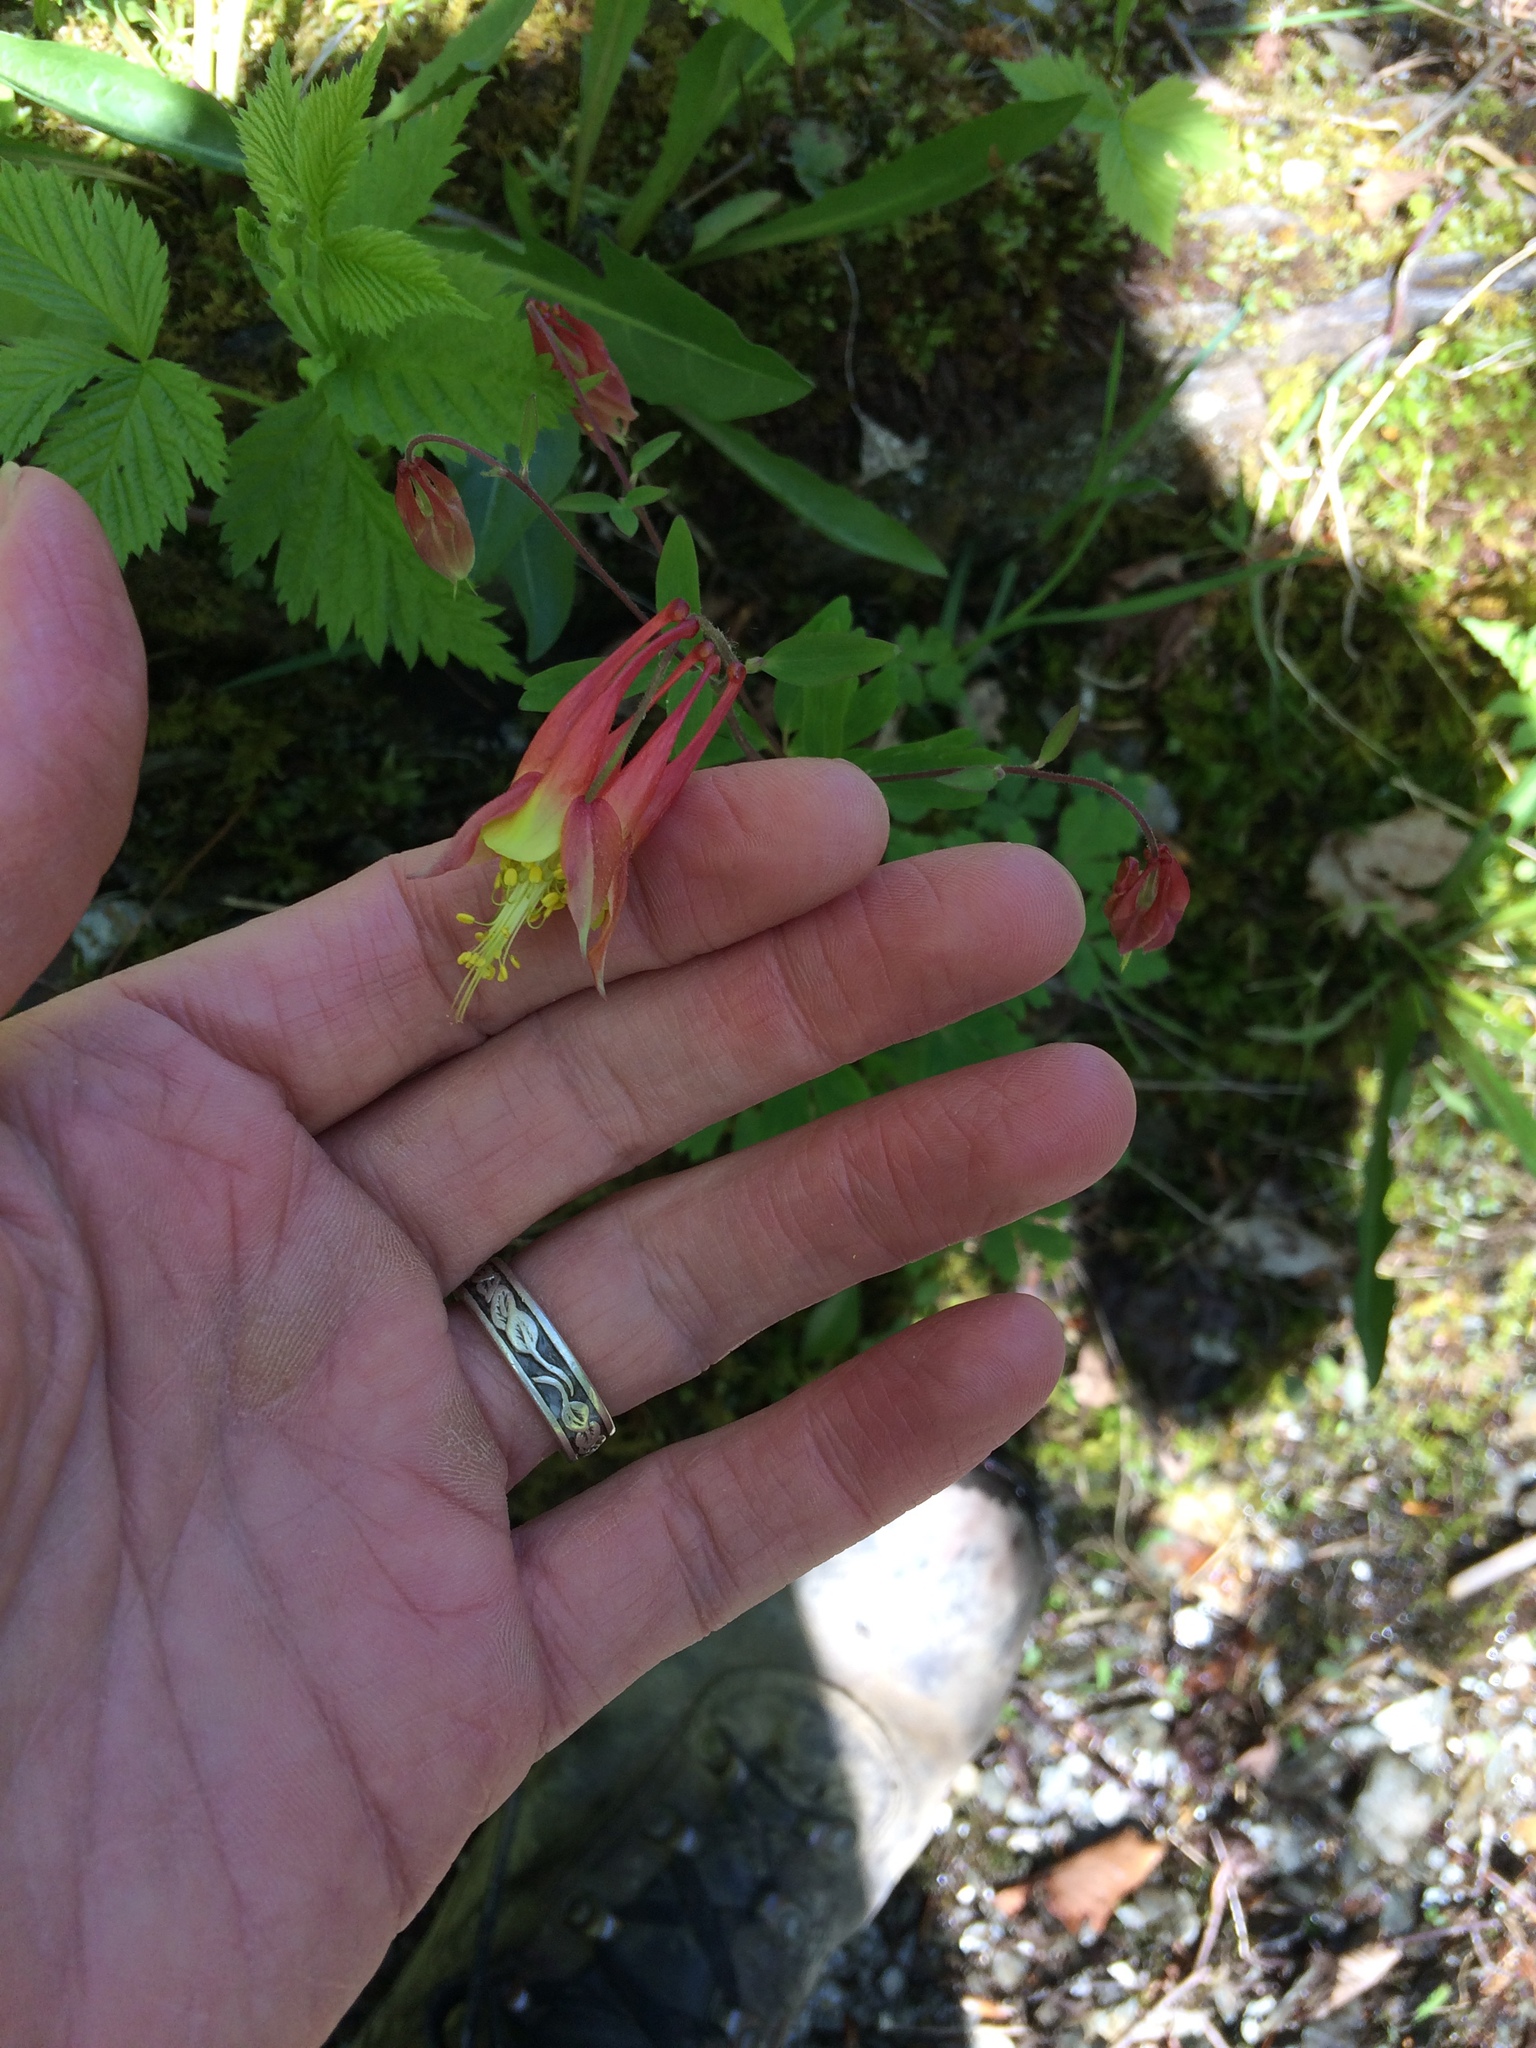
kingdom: Plantae
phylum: Tracheophyta
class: Magnoliopsida
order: Ranunculales
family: Ranunculaceae
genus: Aquilegia
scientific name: Aquilegia canadensis
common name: American columbine
